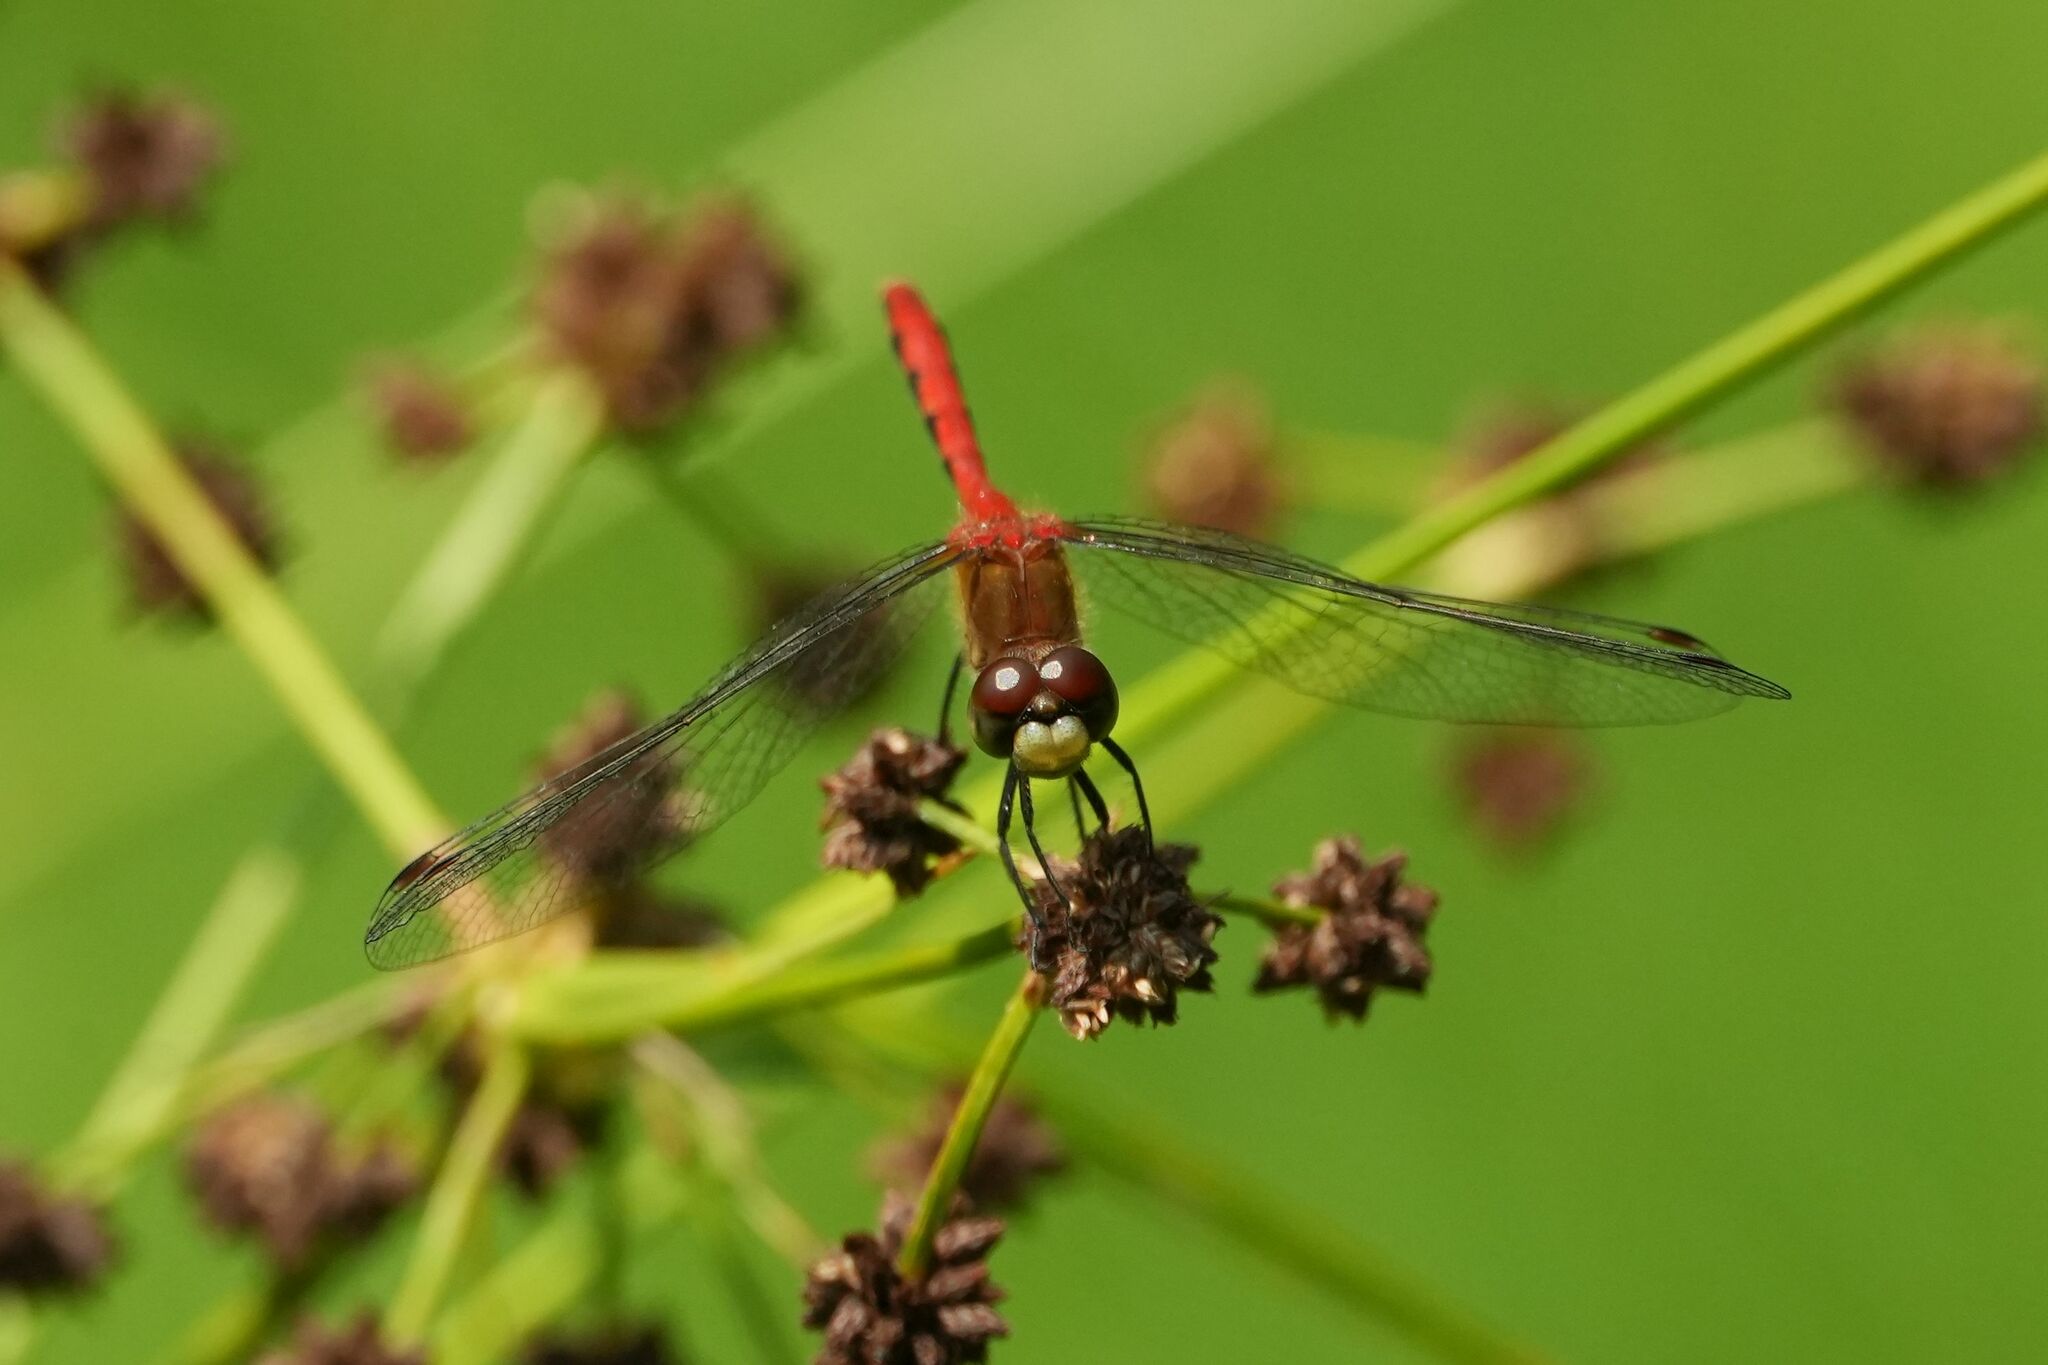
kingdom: Animalia
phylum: Arthropoda
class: Insecta
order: Odonata
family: Libellulidae
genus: Sympetrum
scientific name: Sympetrum obtrusum
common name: White-faced meadowhawk
